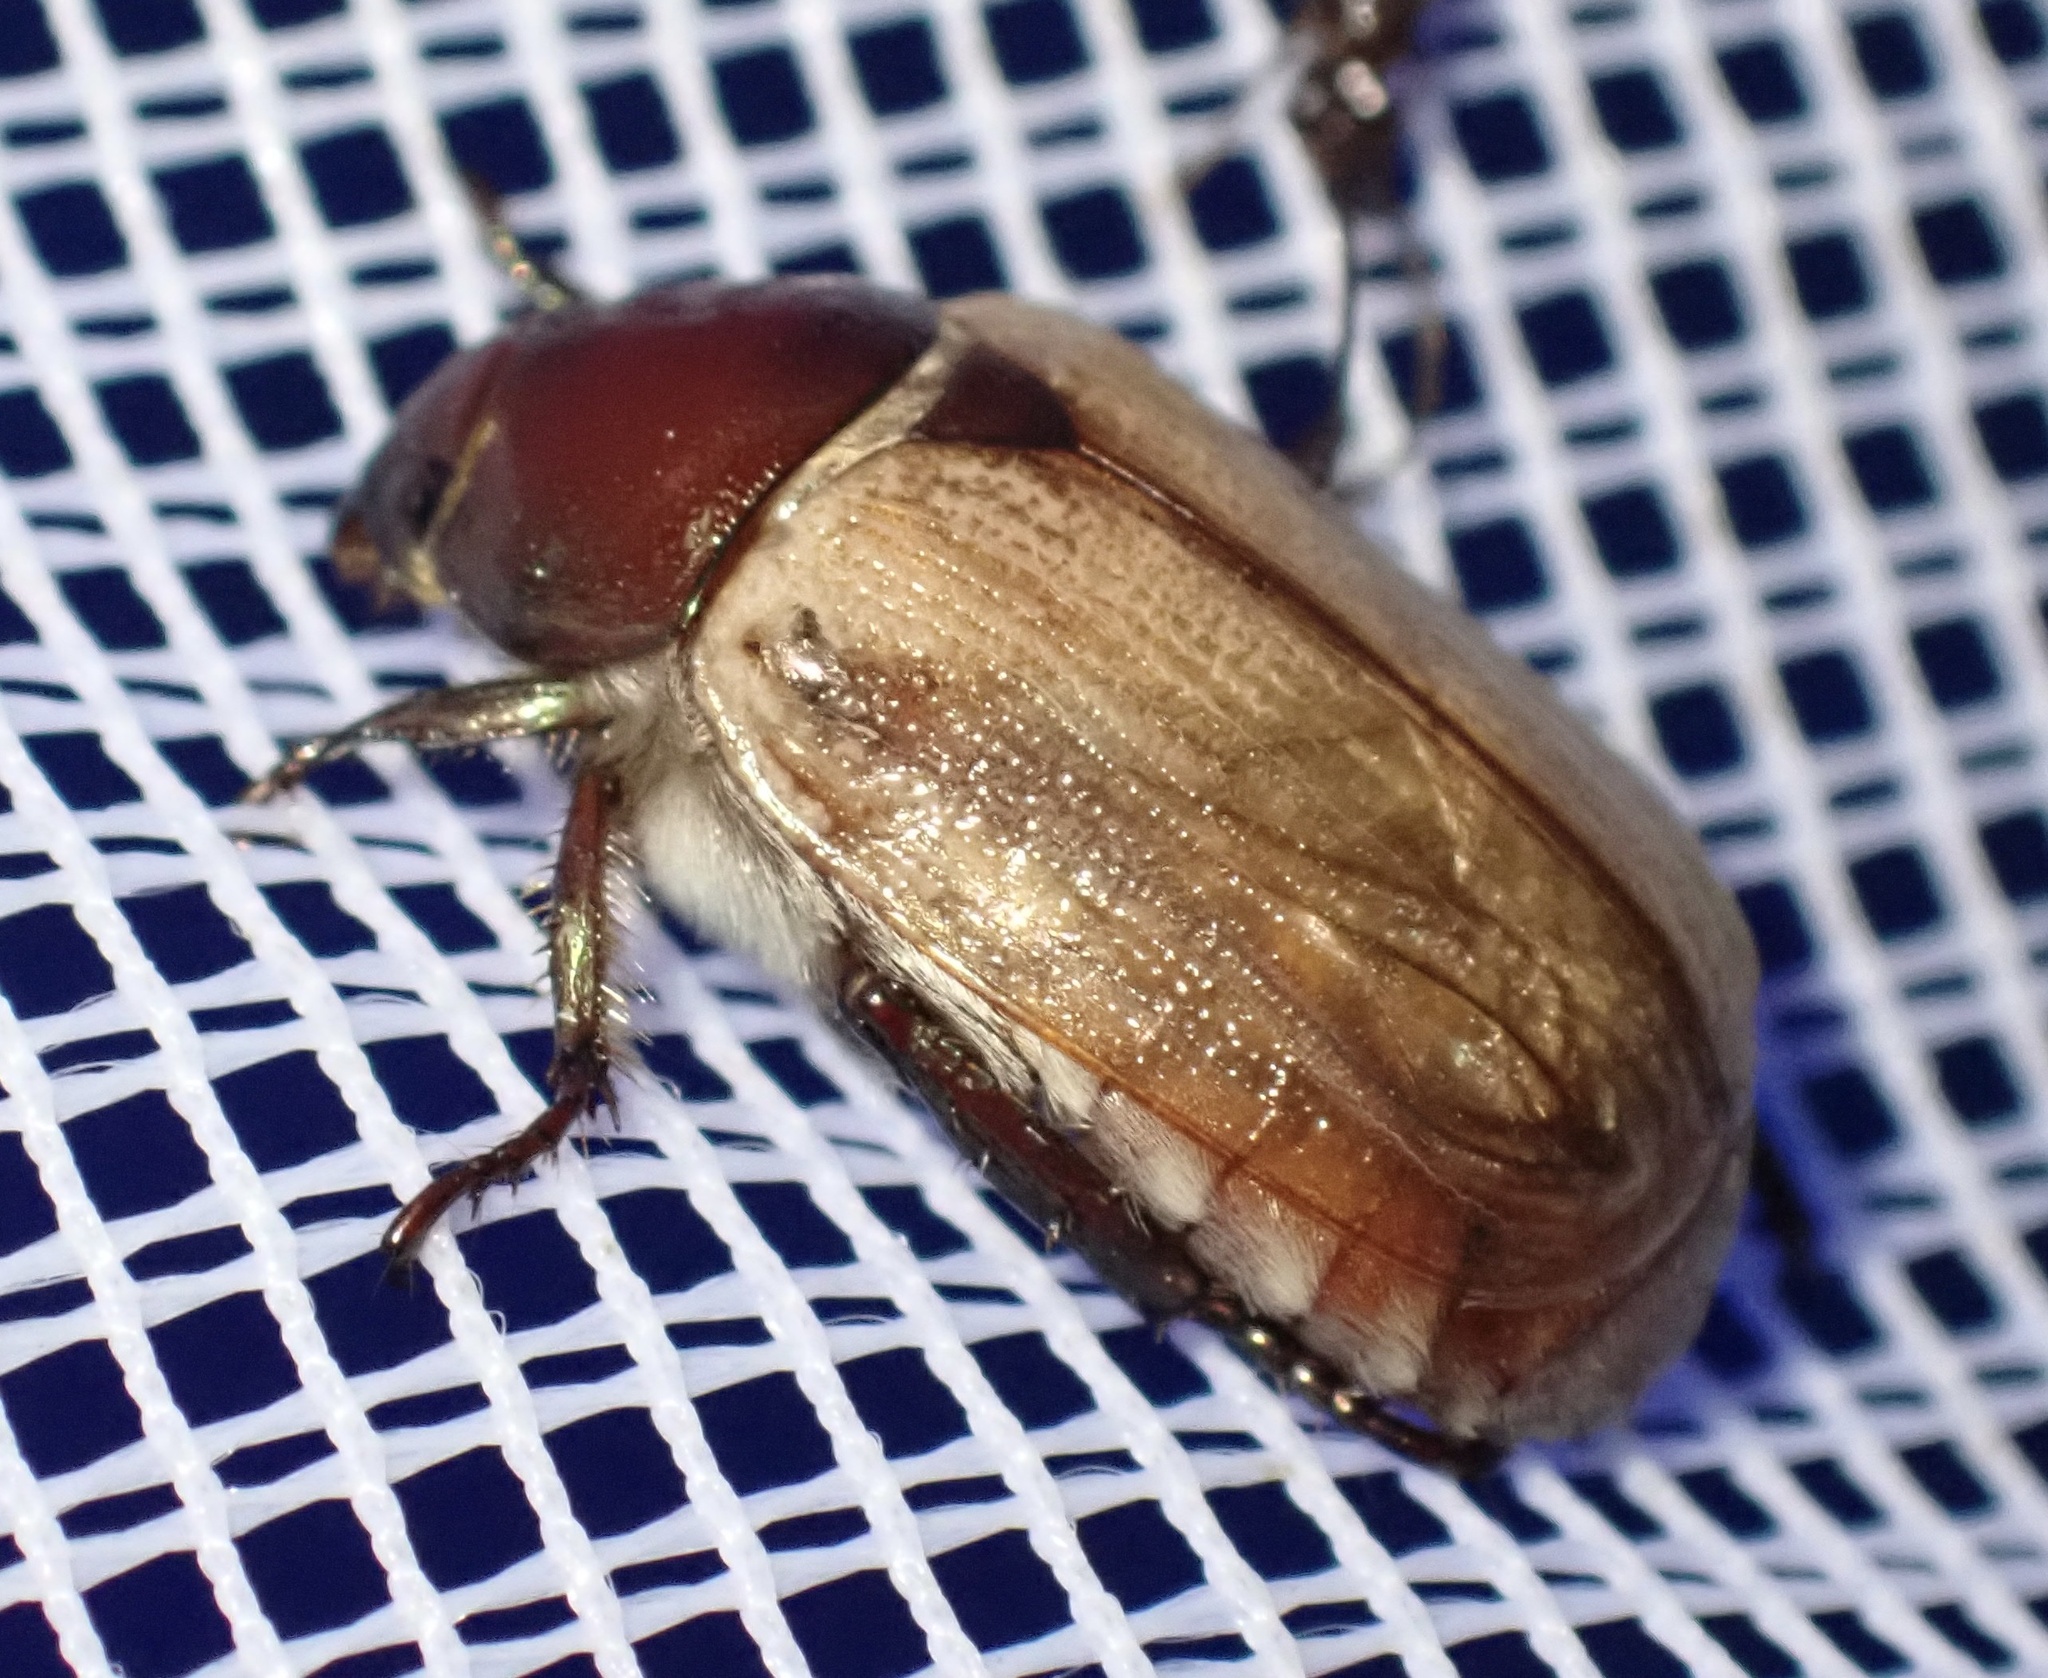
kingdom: Animalia
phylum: Arthropoda
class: Insecta
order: Coleoptera
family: Scarabaeidae
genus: Anomala
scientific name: Anomala brachycaula
